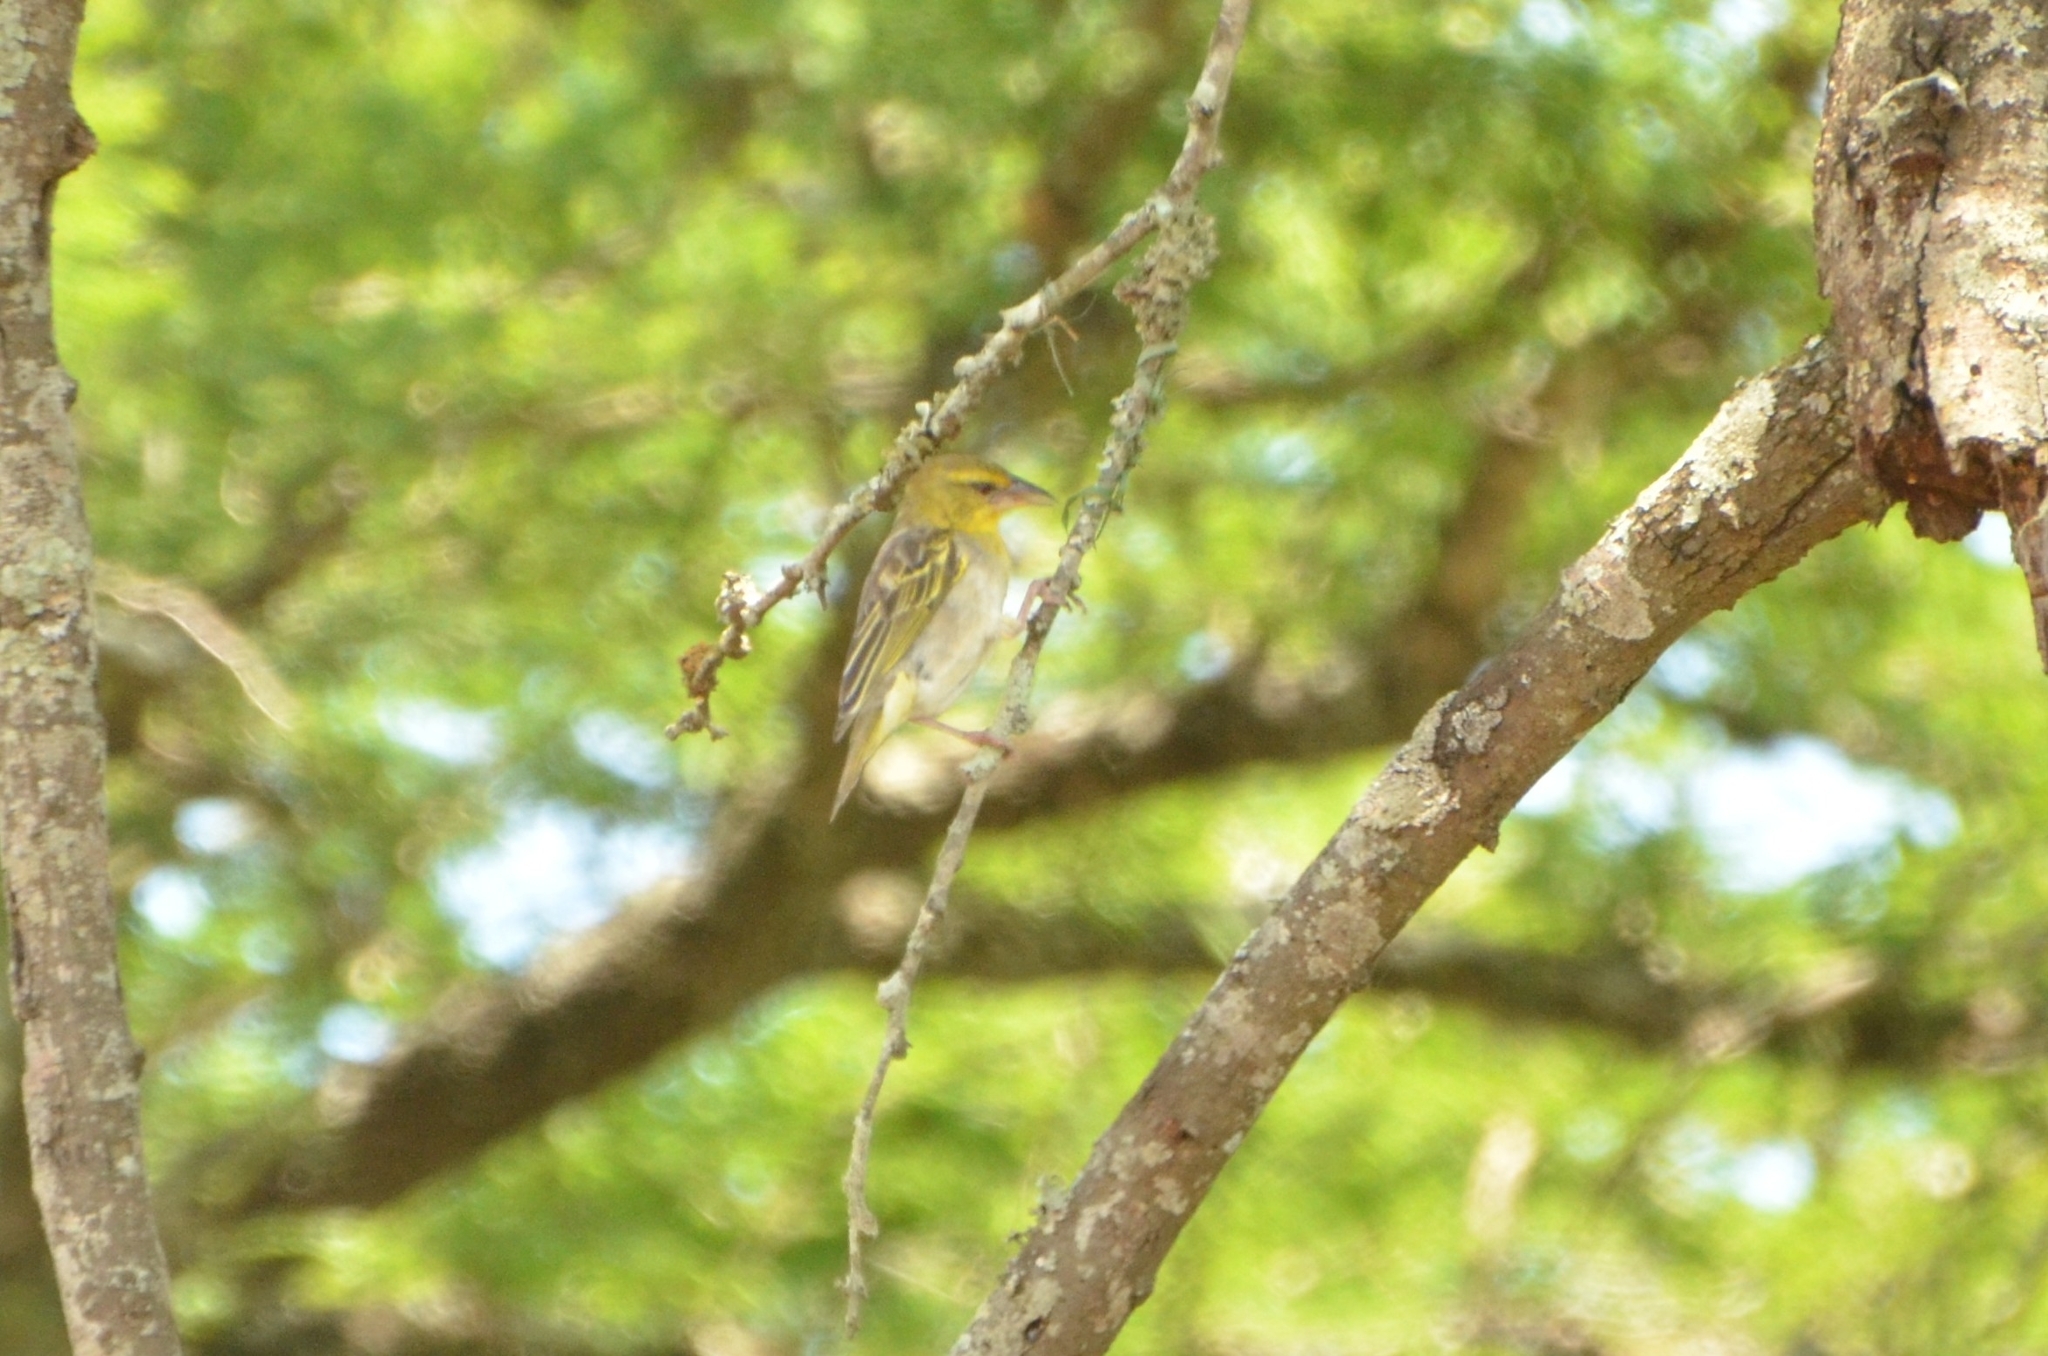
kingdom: Animalia
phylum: Chordata
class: Aves
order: Passeriformes
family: Ploceidae
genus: Ploceus
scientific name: Ploceus cucullatus
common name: Village weaver
